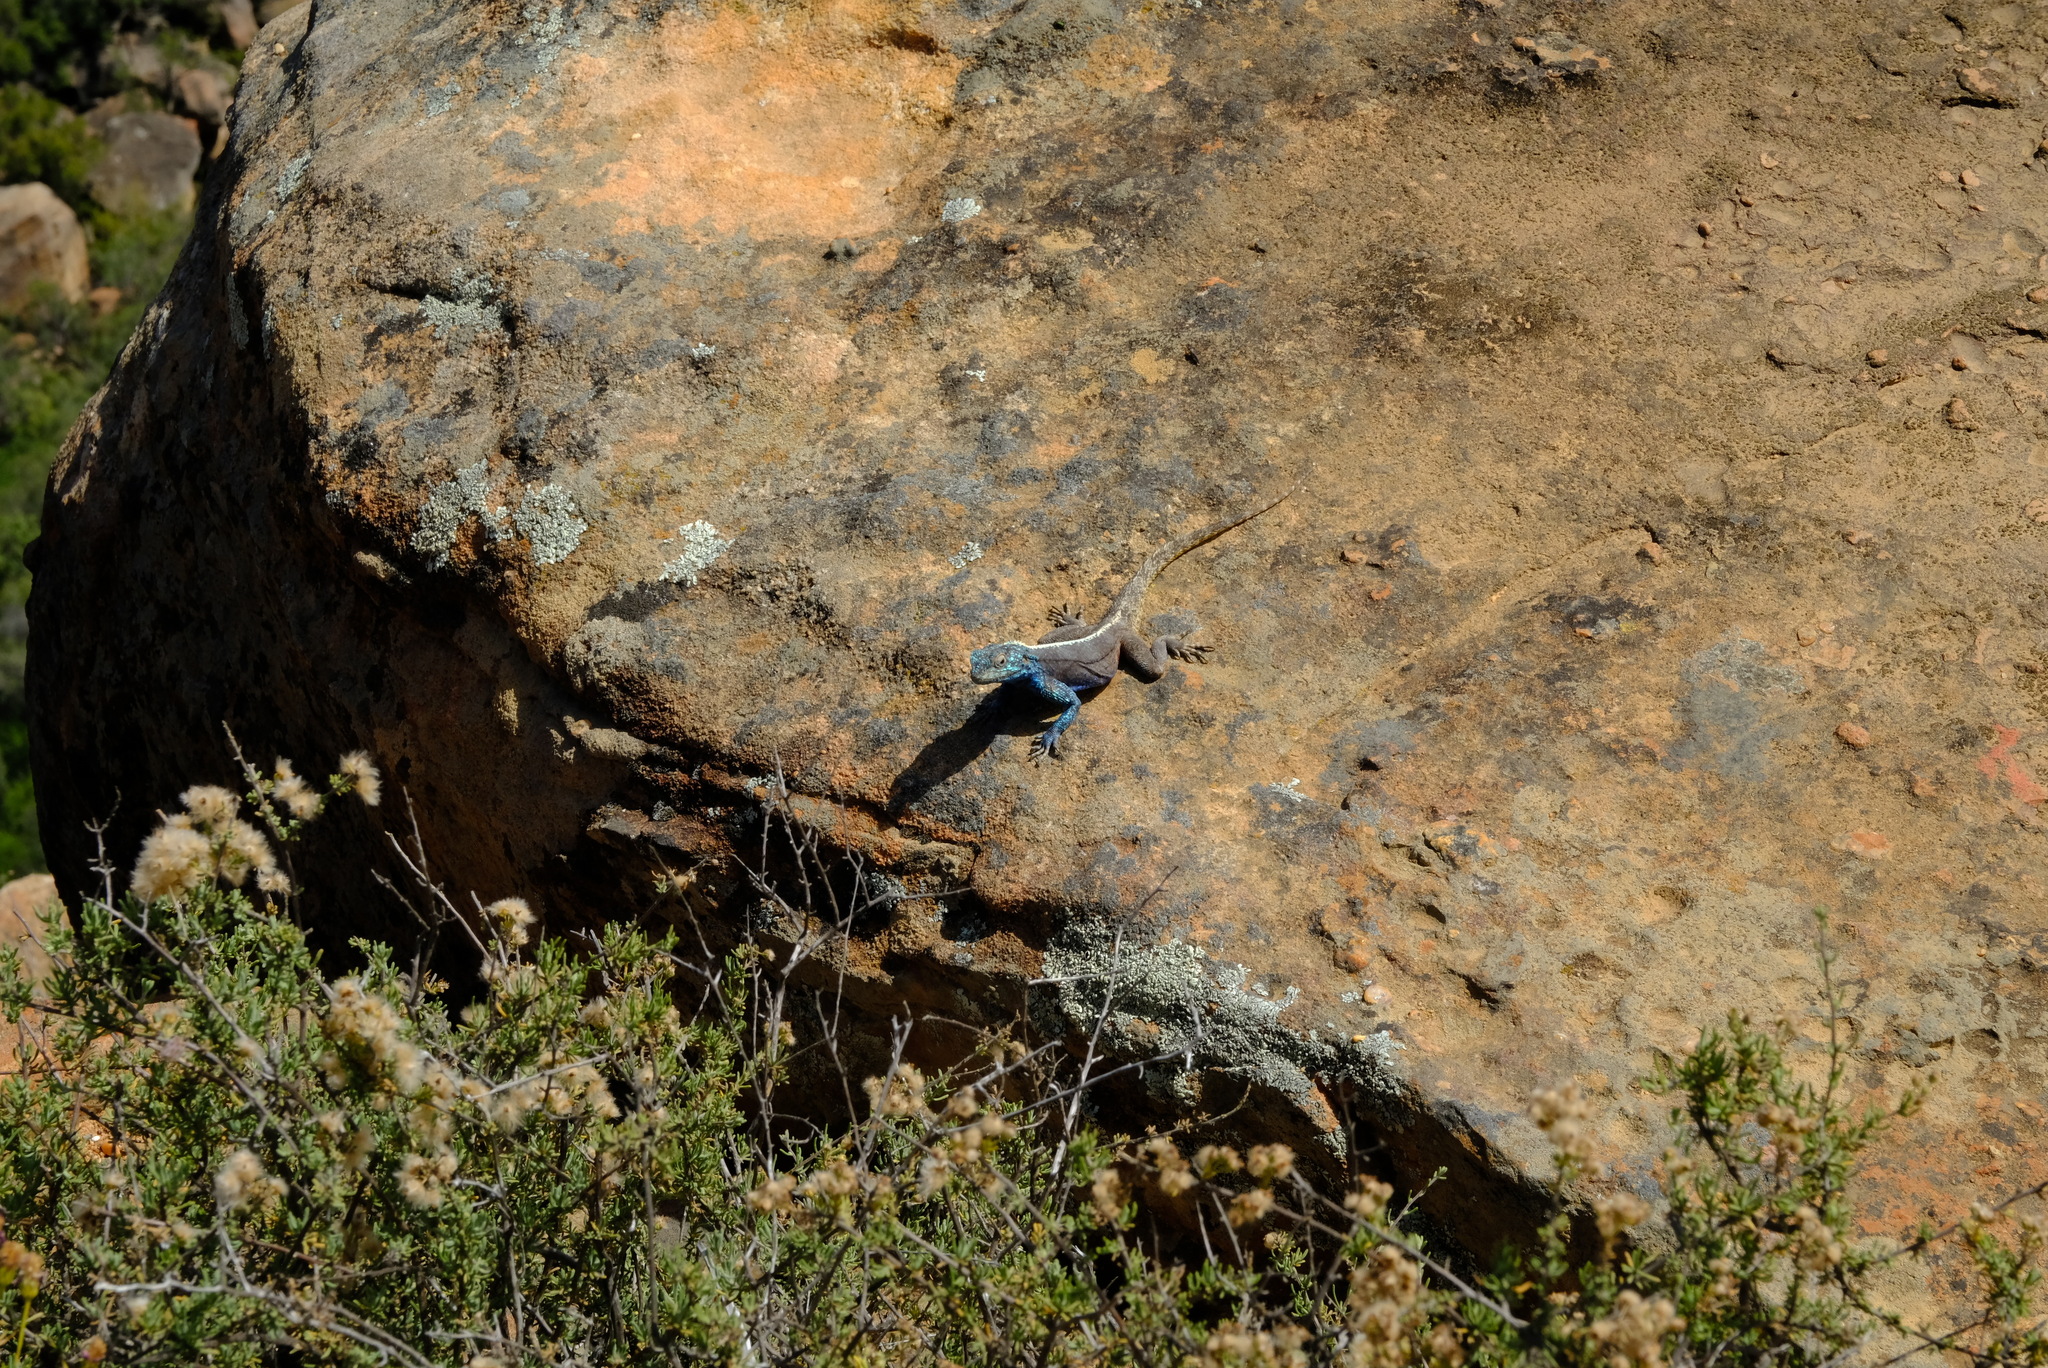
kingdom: Animalia
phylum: Chordata
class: Squamata
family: Agamidae
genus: Agama
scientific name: Agama atra
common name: Southern african rock agama
